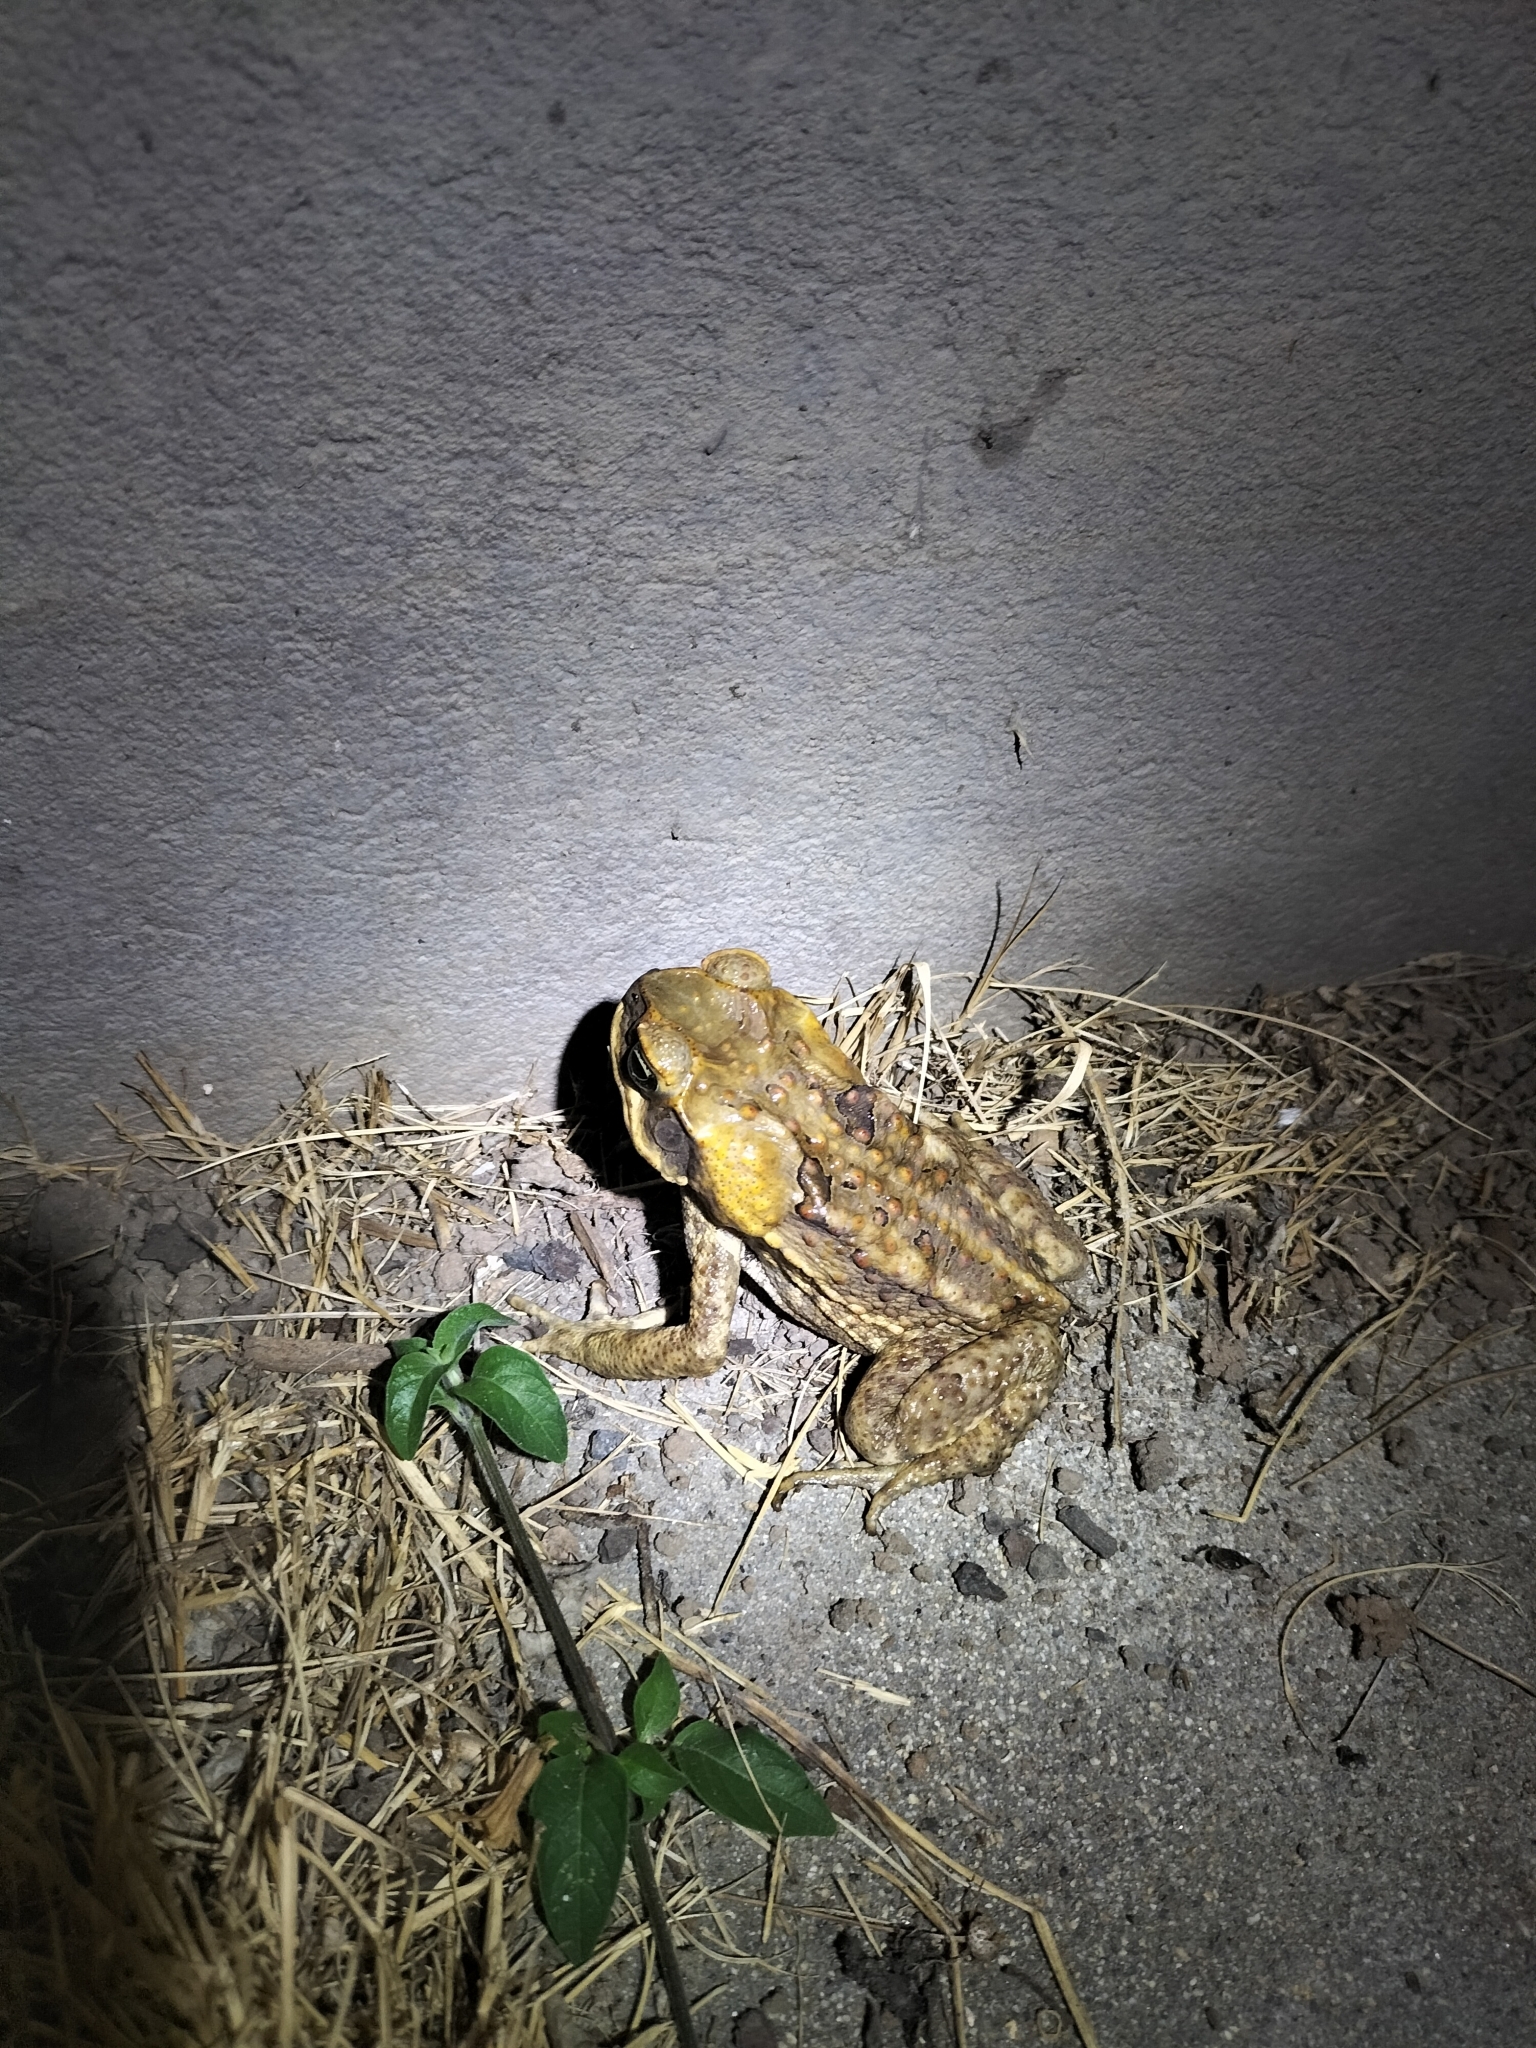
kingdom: Animalia
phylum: Chordata
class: Amphibia
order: Anura
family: Bufonidae
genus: Rhinella
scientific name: Rhinella marina
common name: Cane toad
